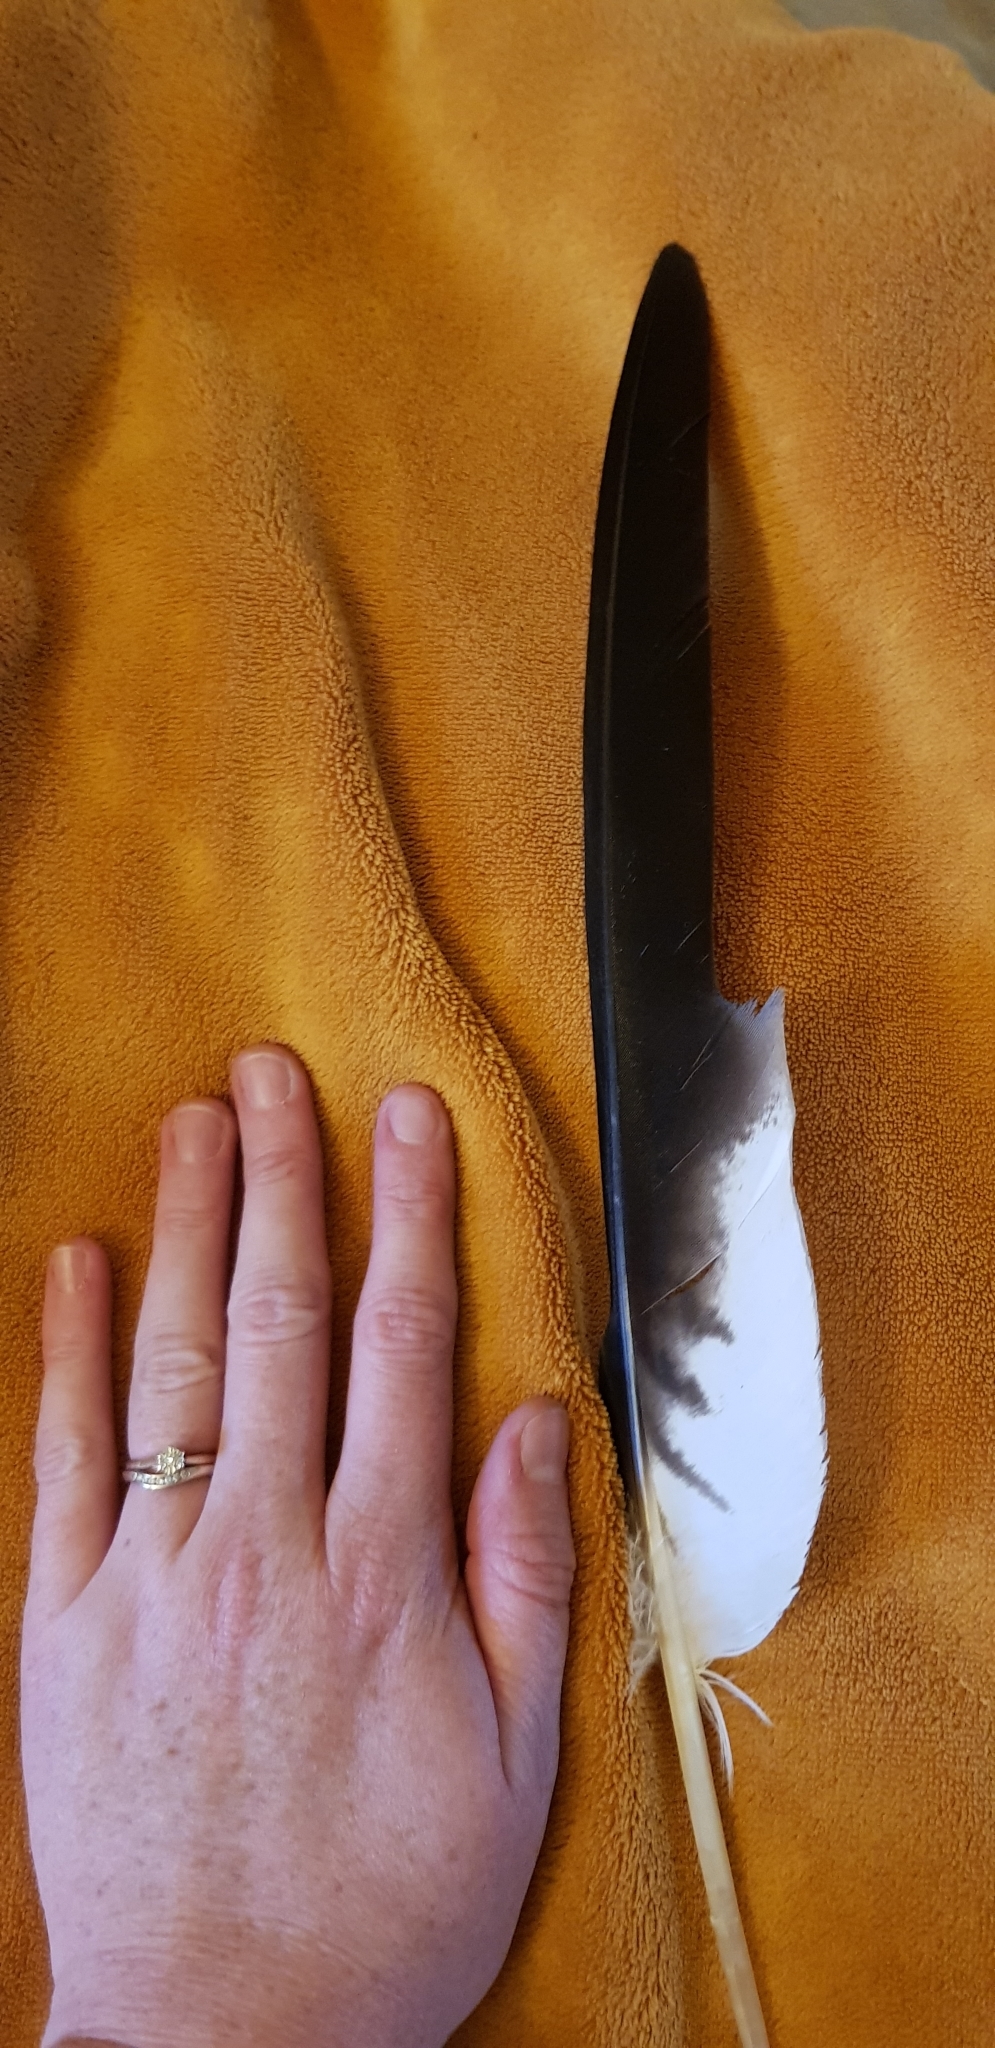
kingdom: Animalia
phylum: Chordata
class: Aves
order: Accipitriformes
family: Accipitridae
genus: Milvus
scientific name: Milvus milvus
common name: Red kite
